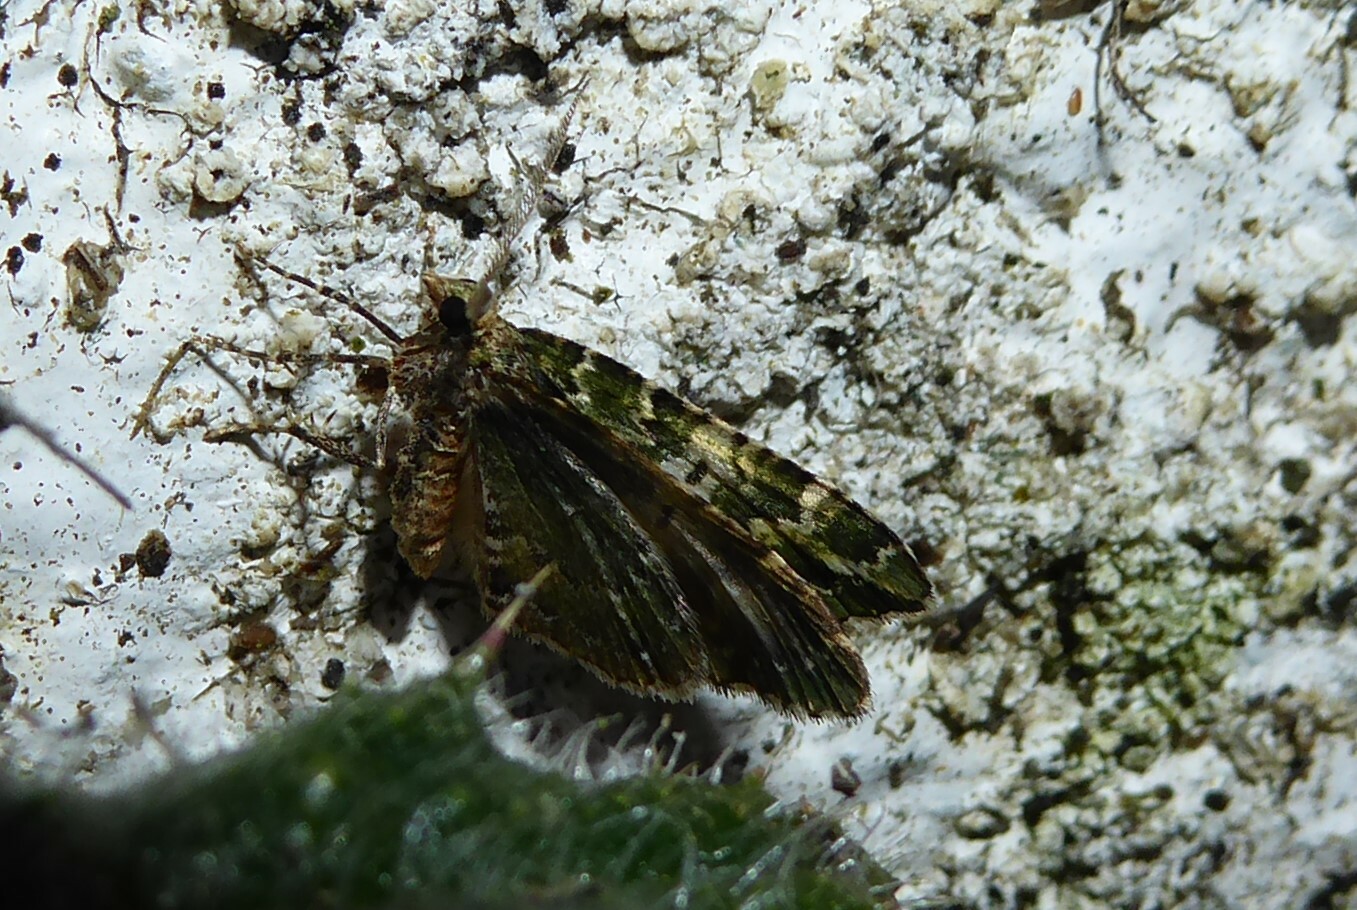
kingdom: Animalia
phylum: Arthropoda
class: Insecta
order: Lepidoptera
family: Geometridae
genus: Asaphodes
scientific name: Asaphodes beata
